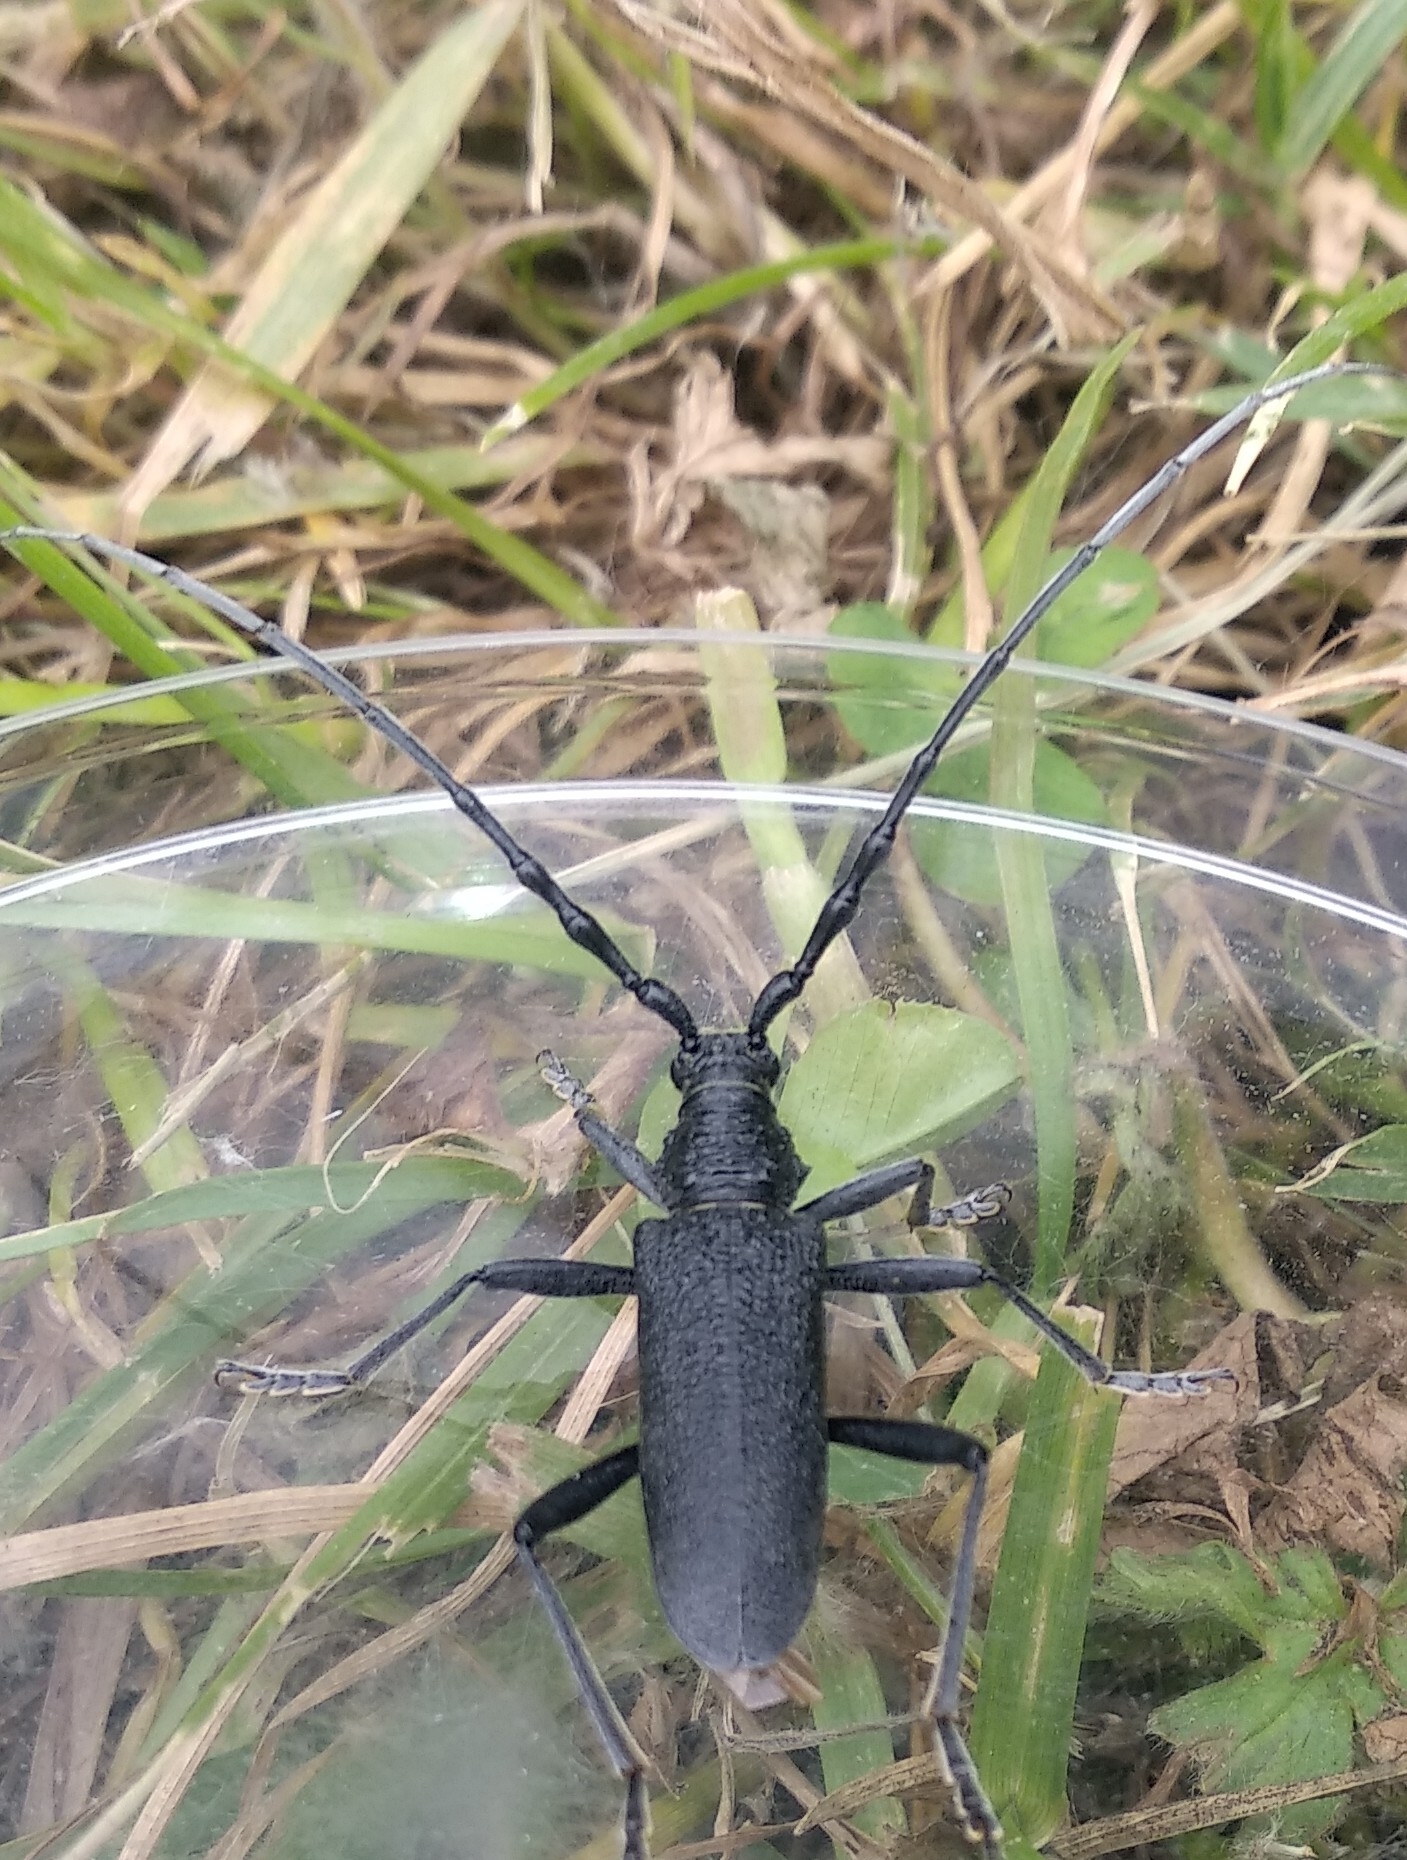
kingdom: Animalia
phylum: Arthropoda
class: Insecta
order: Coleoptera
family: Cerambycidae
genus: Cerambyx
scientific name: Cerambyx scopolii
